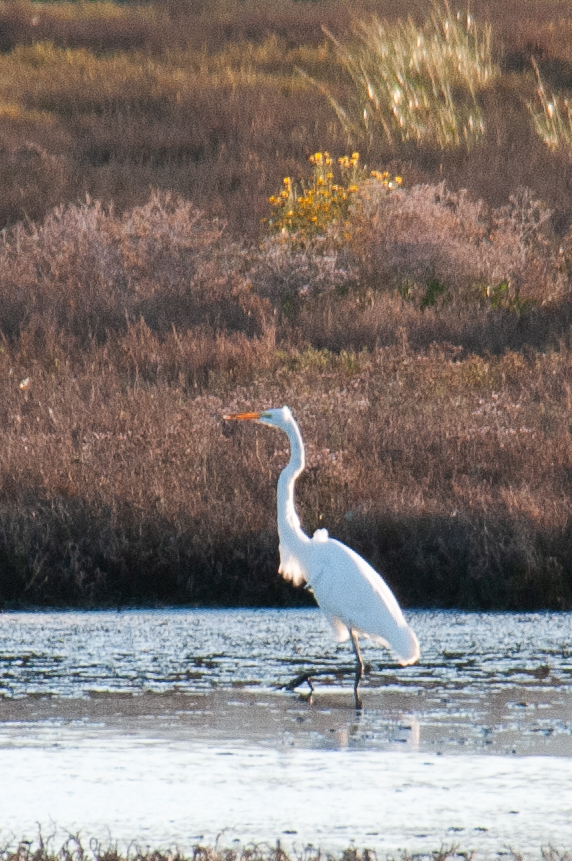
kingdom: Animalia
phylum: Chordata
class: Aves
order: Pelecaniformes
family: Ardeidae
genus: Ardea
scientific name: Ardea alba
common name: Great egret
